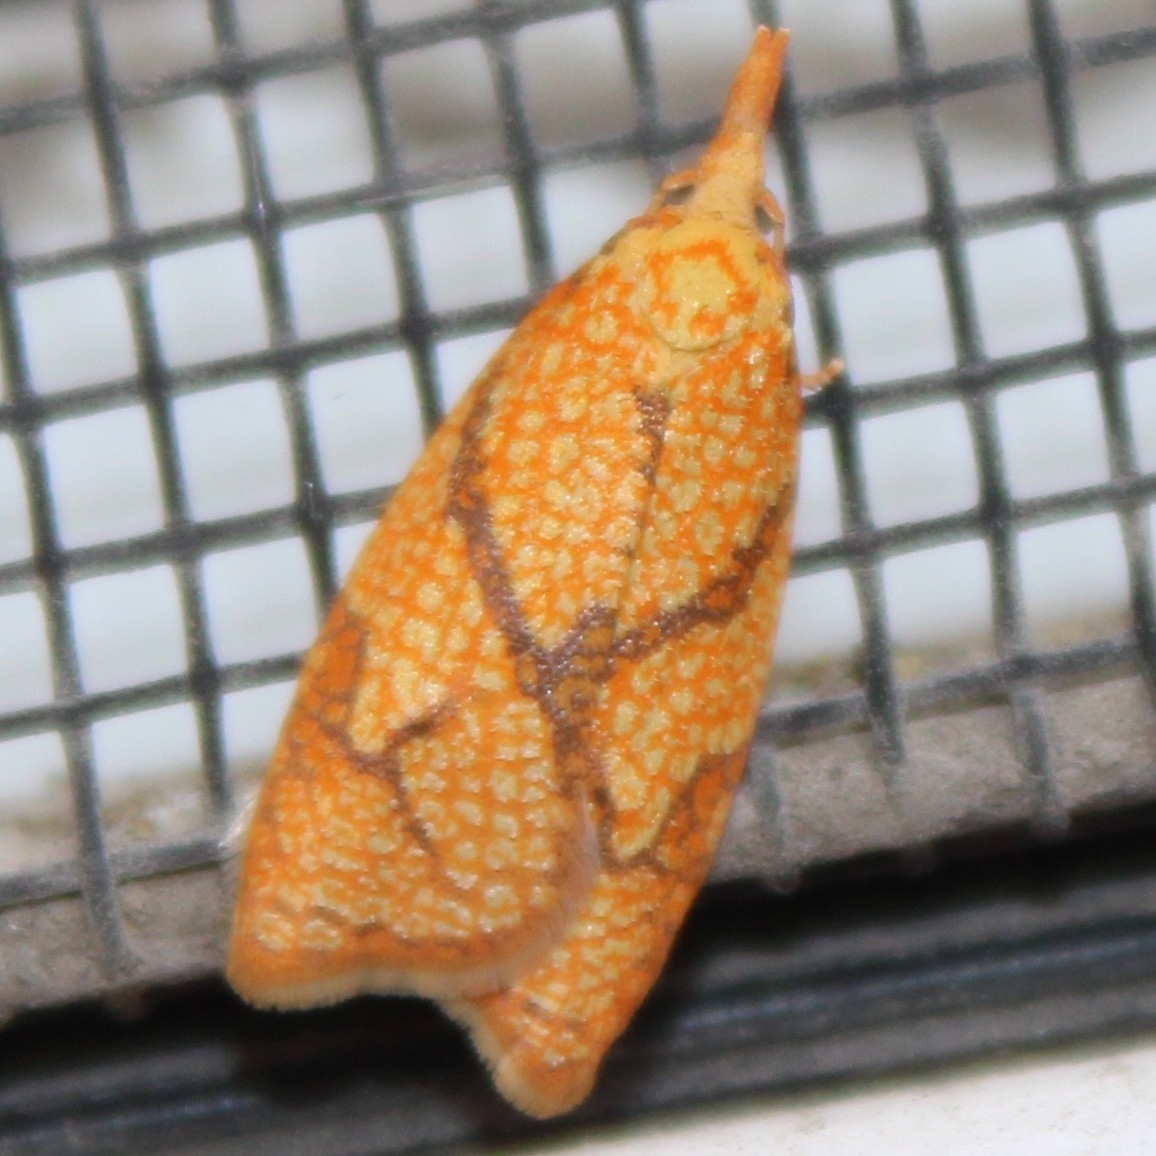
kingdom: Animalia
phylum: Arthropoda
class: Insecta
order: Lepidoptera
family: Tortricidae
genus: Cenopis
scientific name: Cenopis reticulatana
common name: Reticulated fruitworm moth
